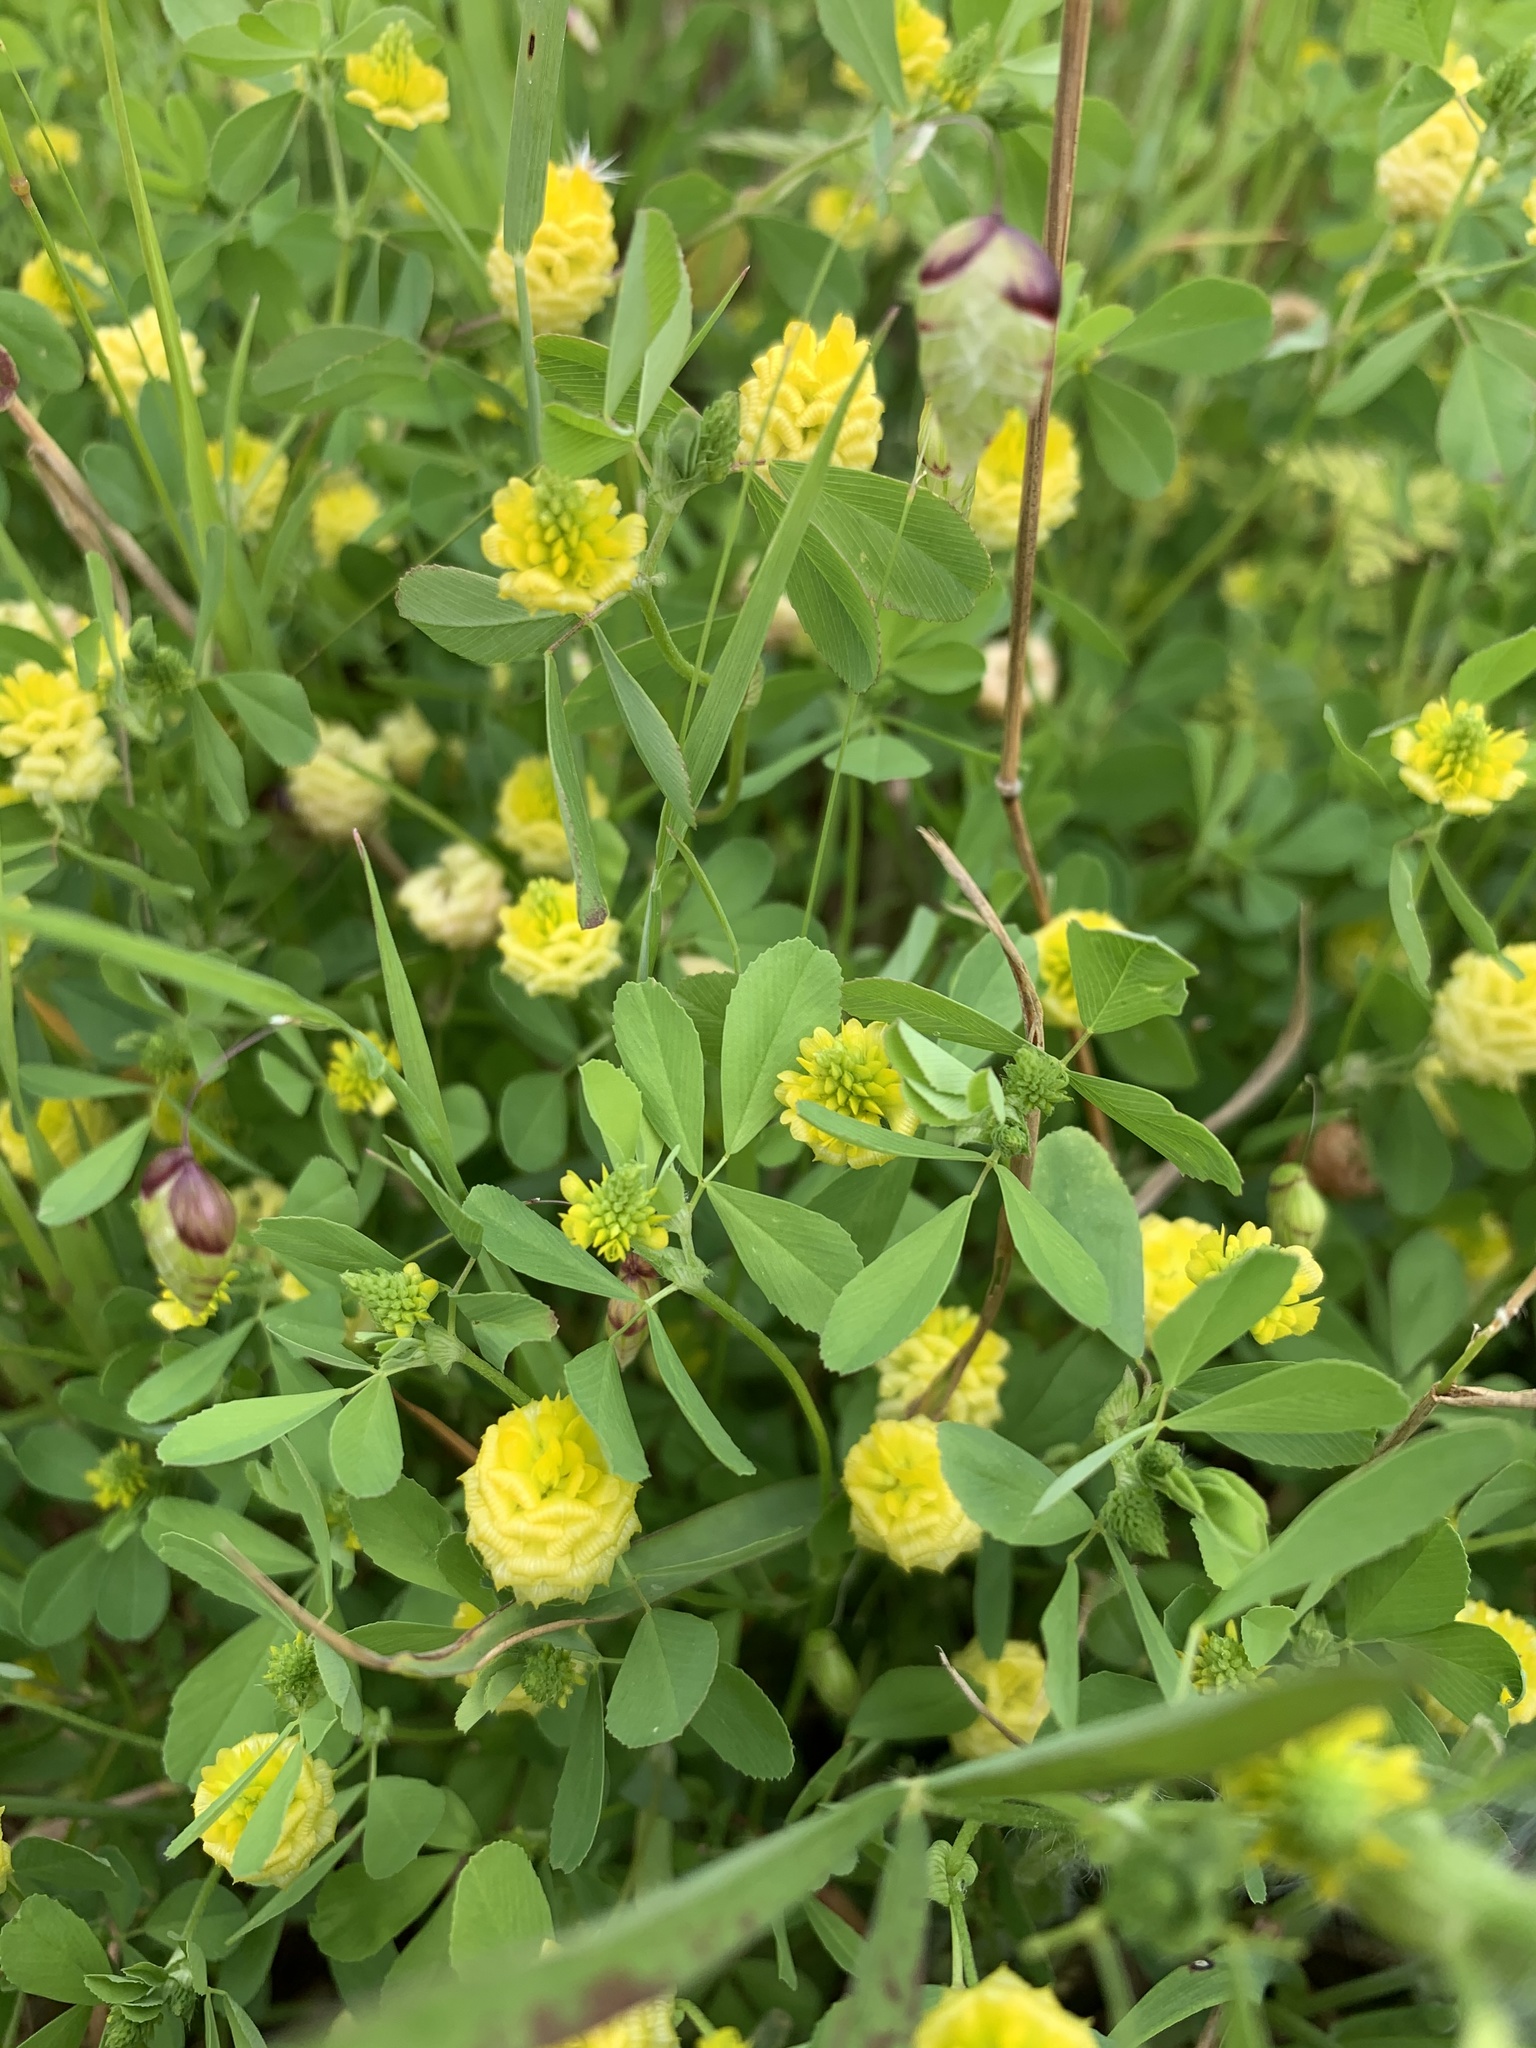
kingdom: Plantae
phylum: Tracheophyta
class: Magnoliopsida
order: Fabales
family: Fabaceae
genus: Trifolium
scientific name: Trifolium campestre
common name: Field clover
